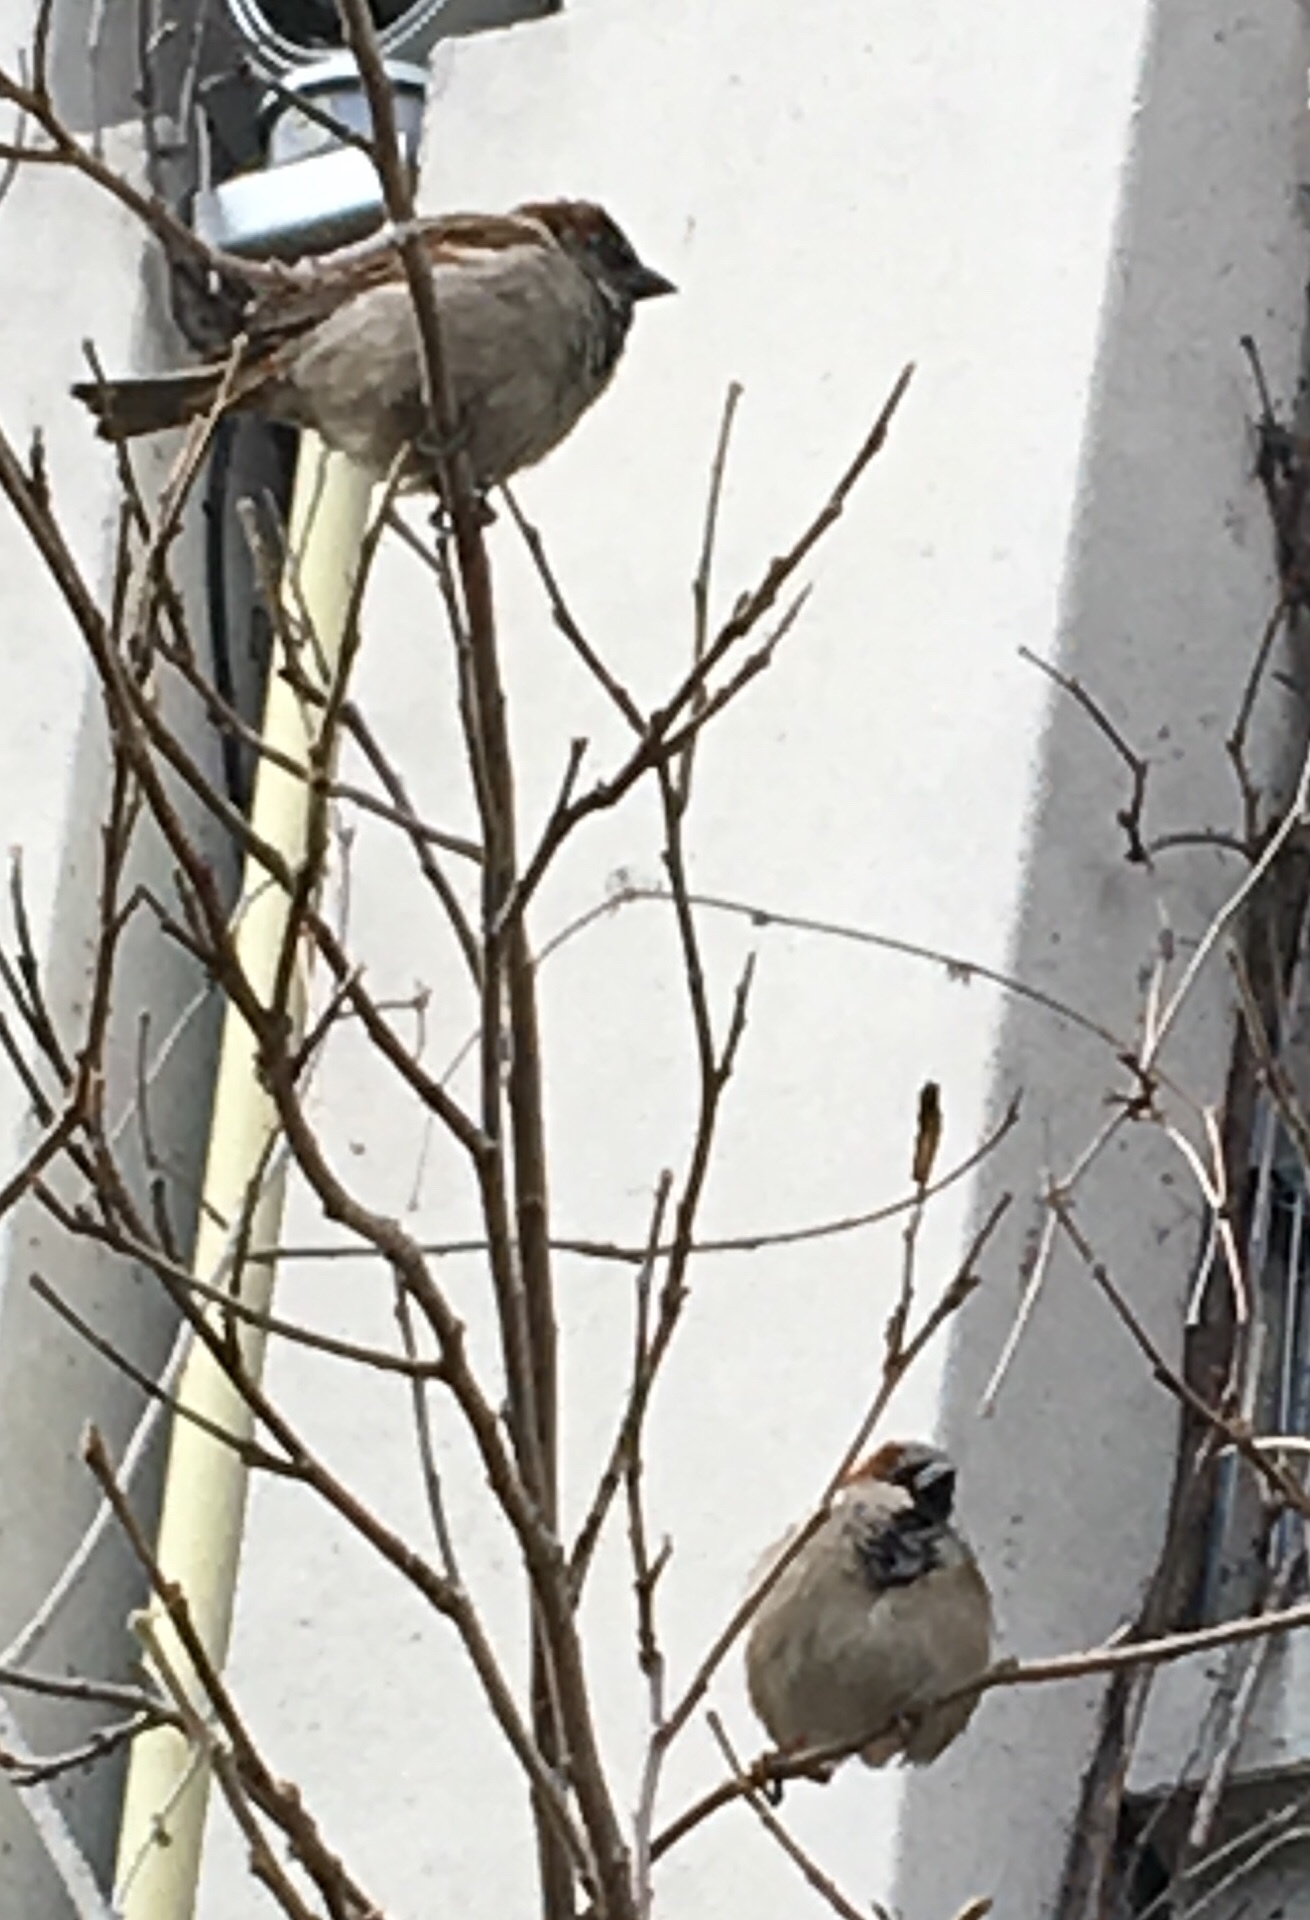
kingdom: Animalia
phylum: Chordata
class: Aves
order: Passeriformes
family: Passeridae
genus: Passer
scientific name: Passer domesticus
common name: House sparrow
